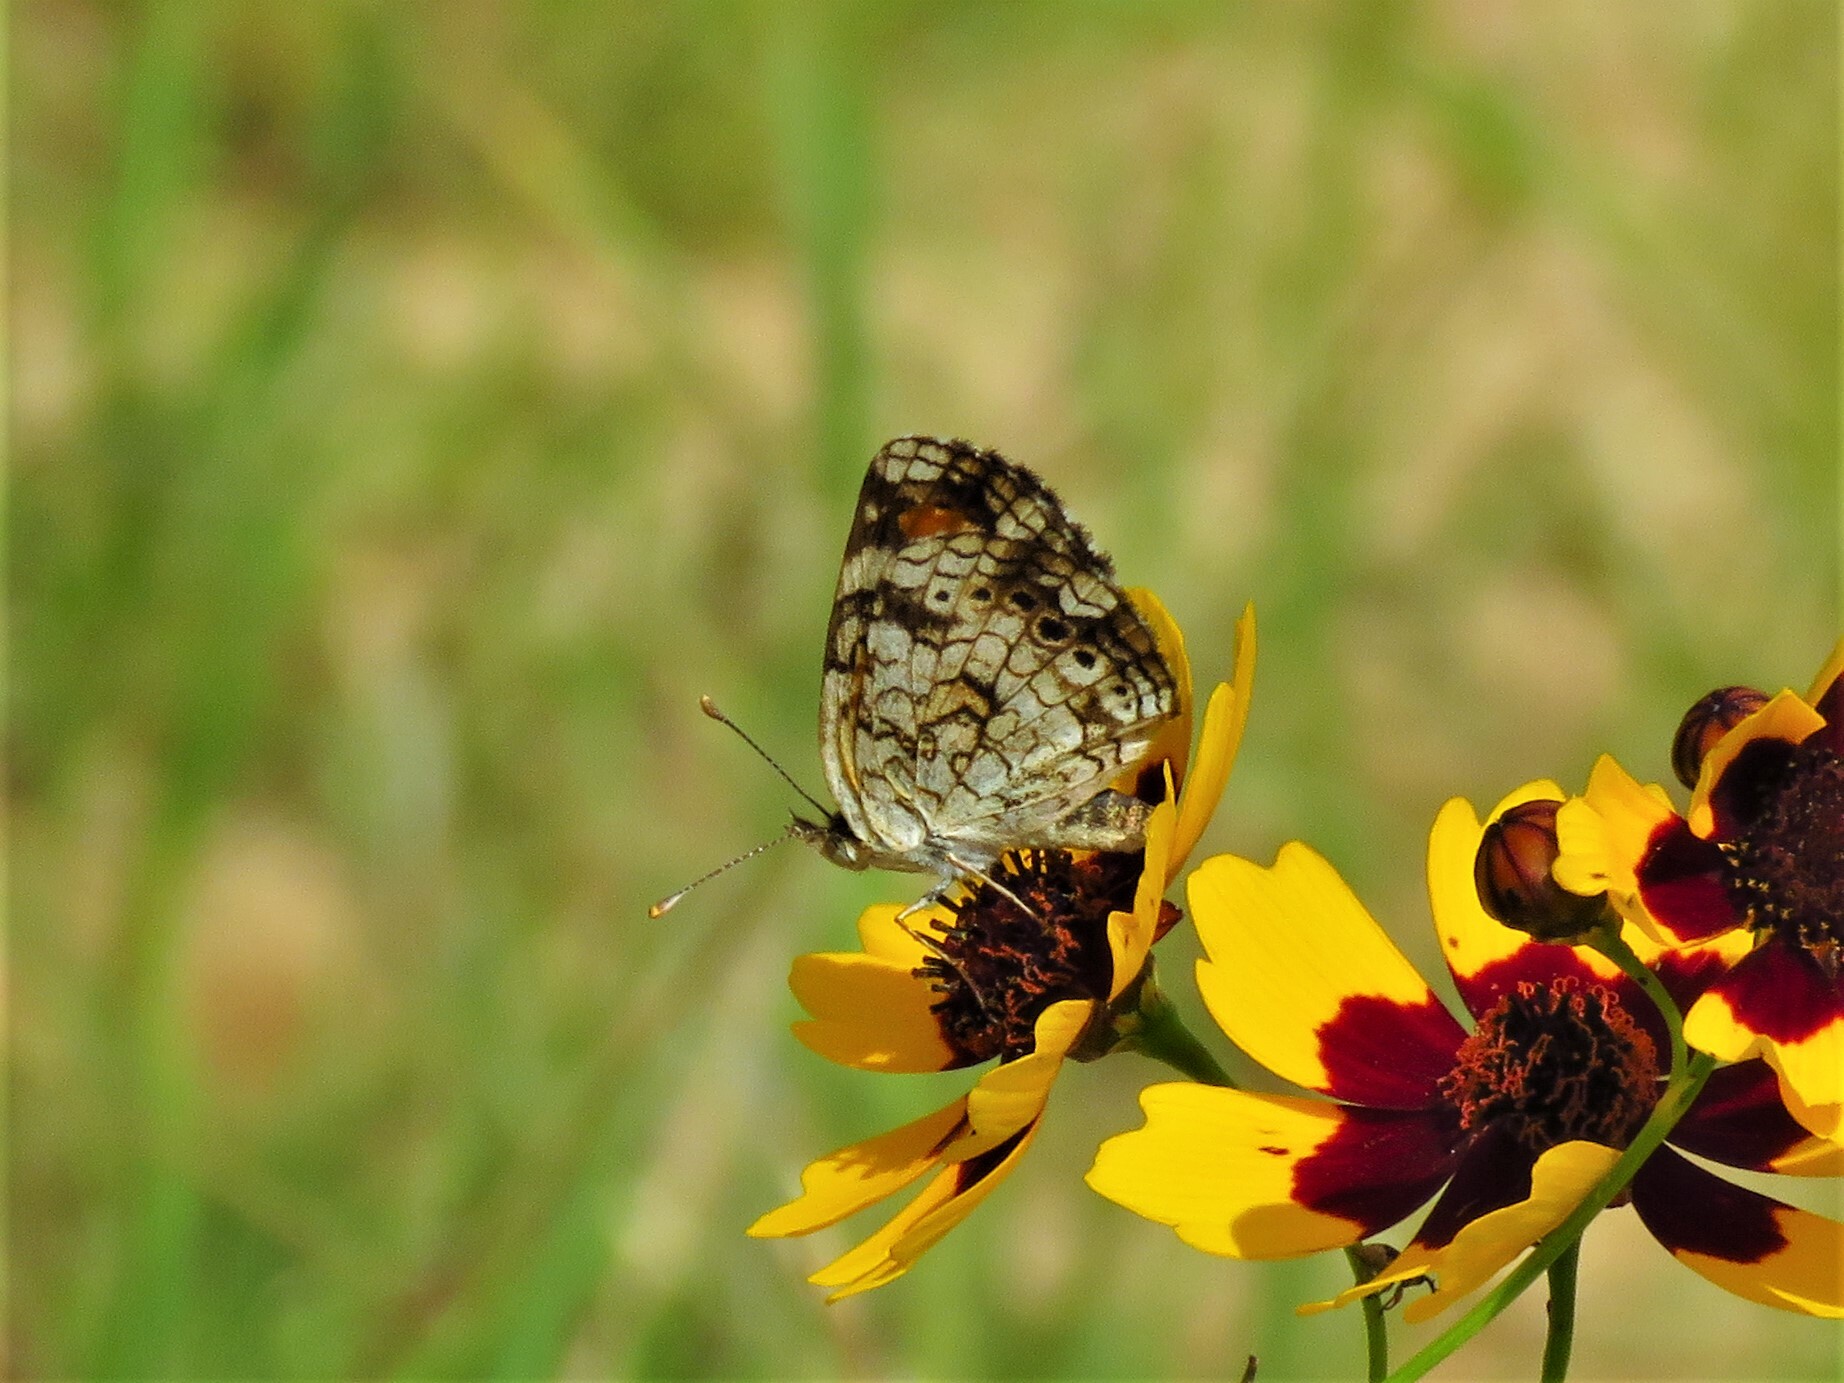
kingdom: Animalia
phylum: Arthropoda
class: Insecta
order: Lepidoptera
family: Nymphalidae
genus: Phyciodes
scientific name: Phyciodes phaon
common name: Phaon crescent
